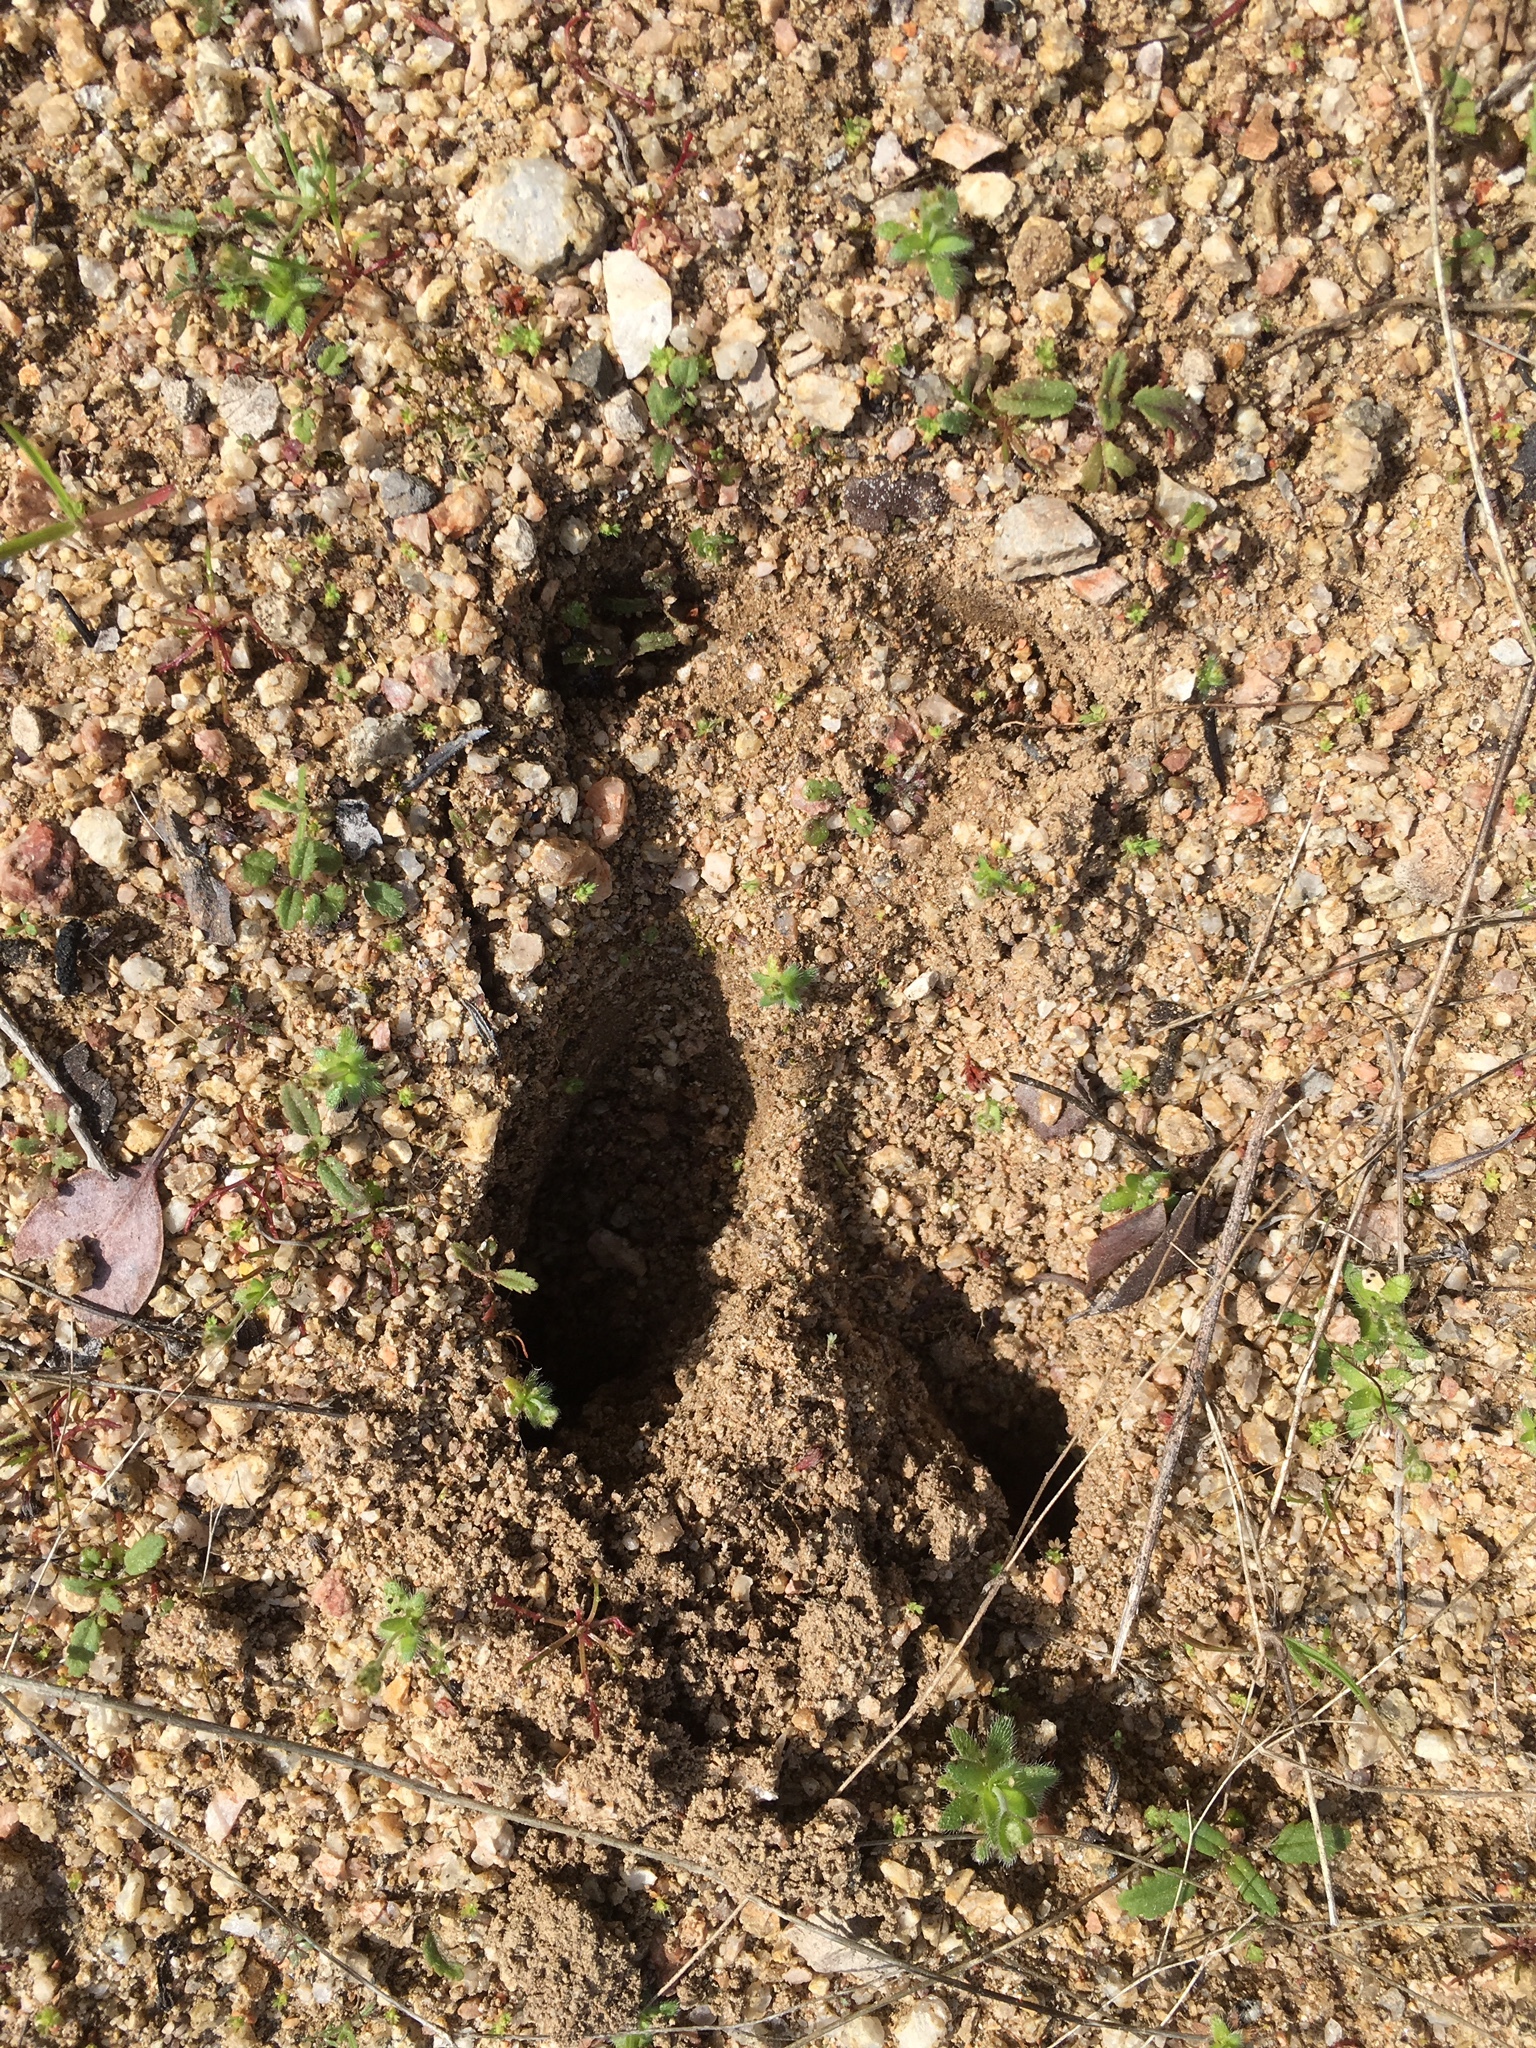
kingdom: Animalia
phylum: Chordata
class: Mammalia
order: Artiodactyla
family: Cervidae
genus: Odocoileus
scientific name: Odocoileus hemionus
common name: Mule deer
